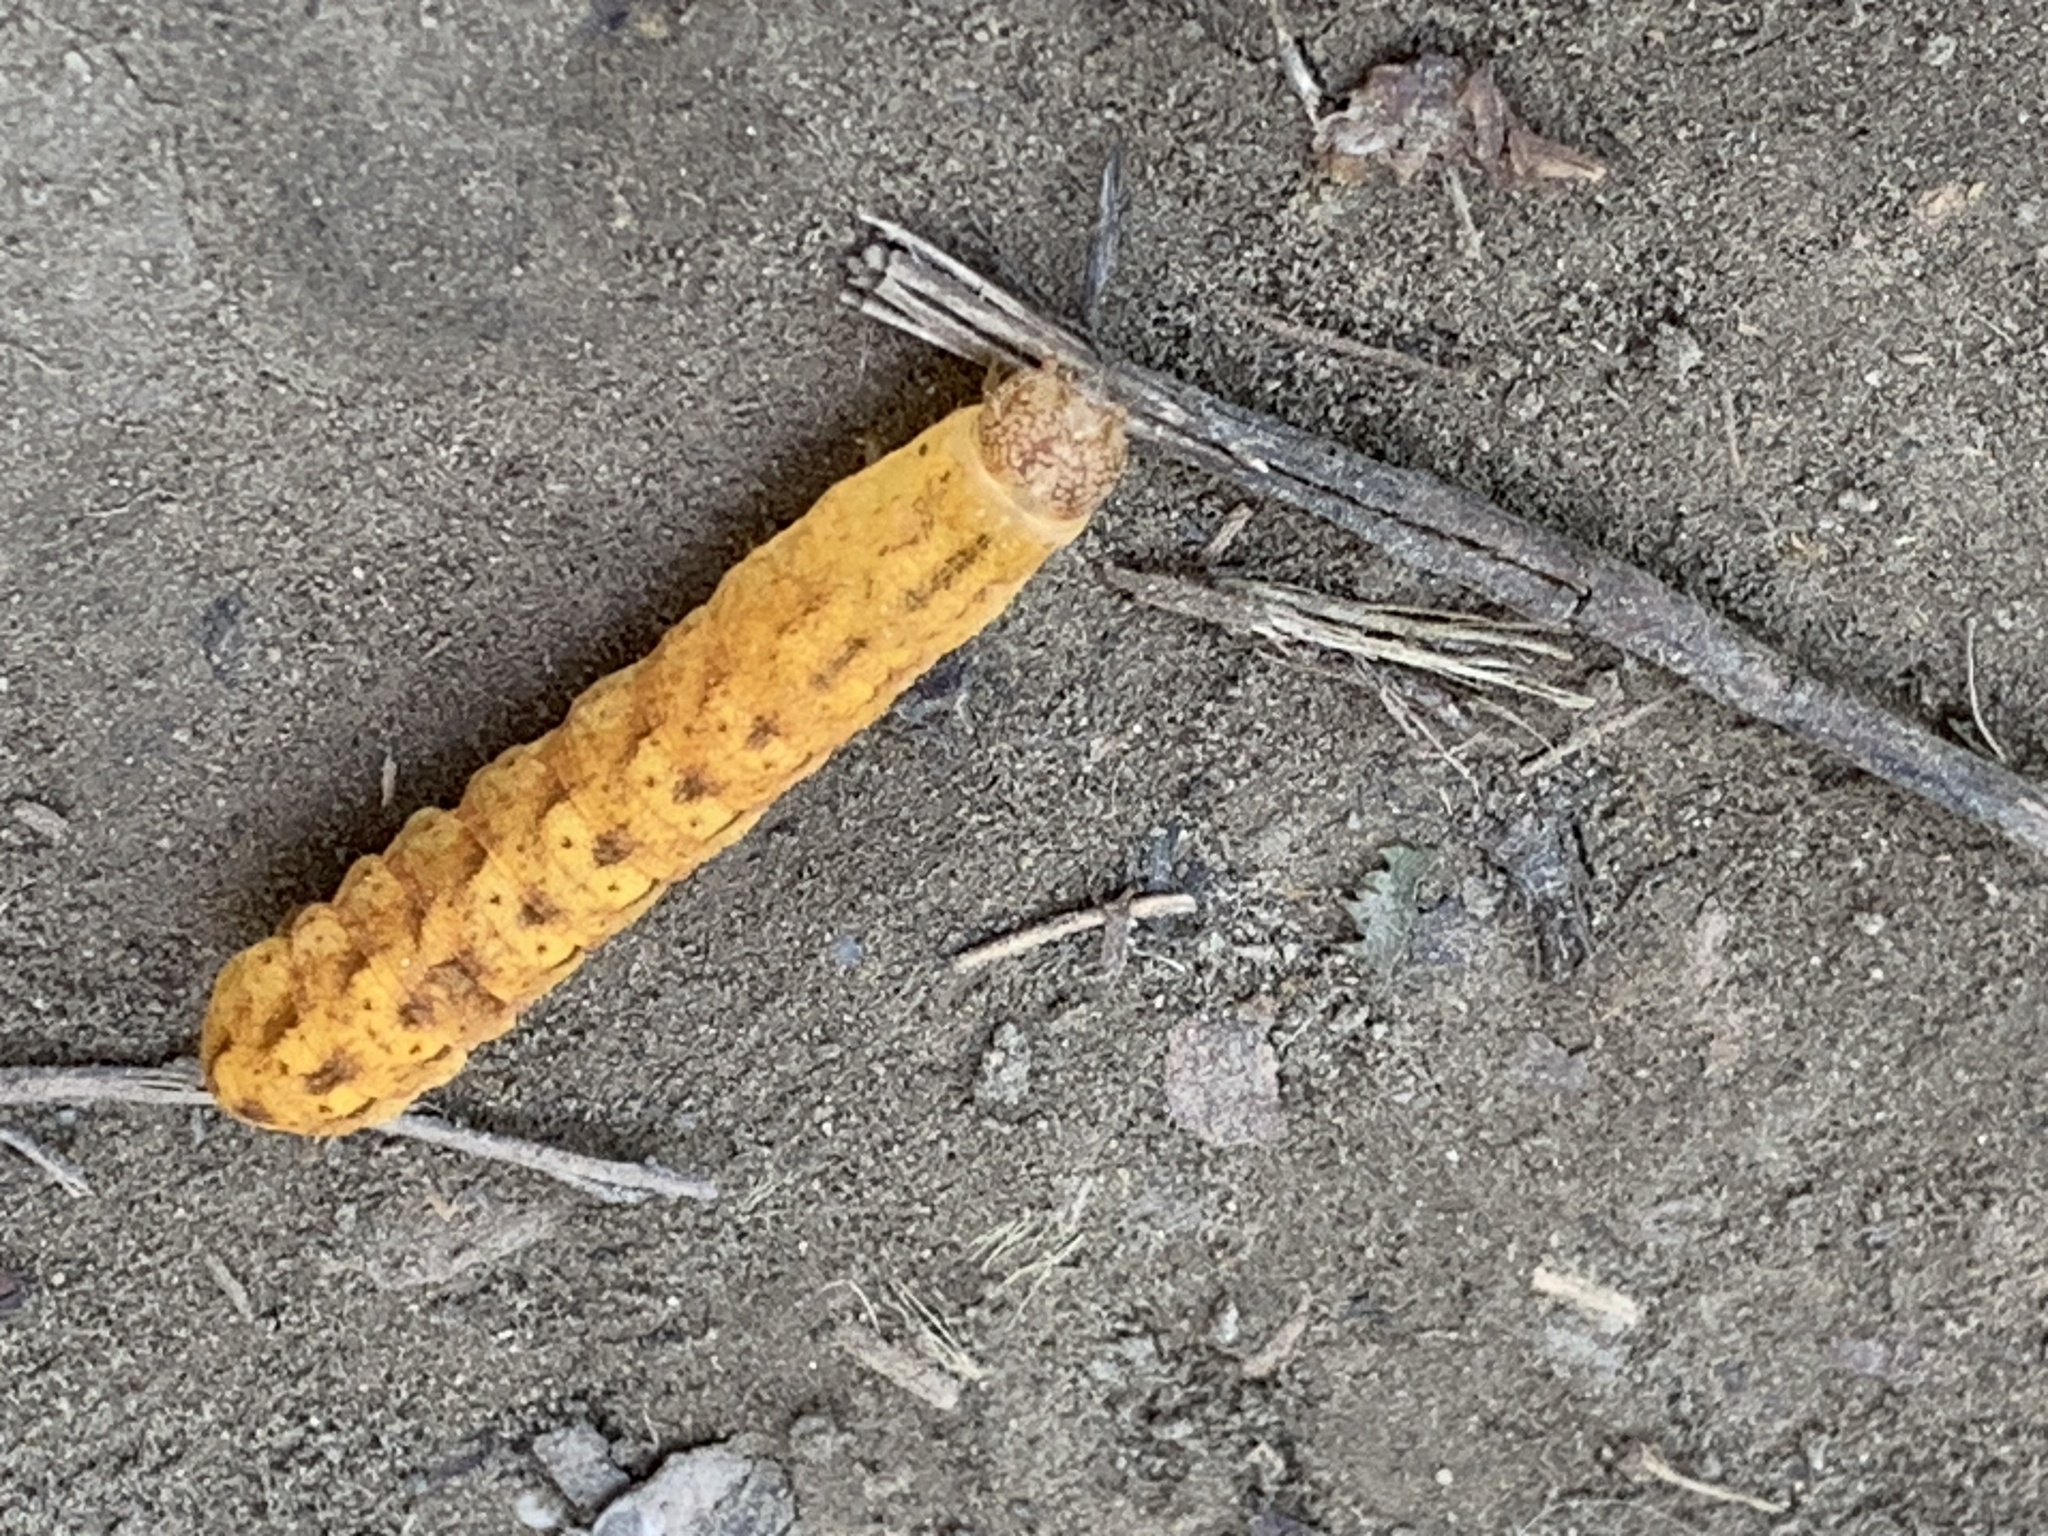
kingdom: Animalia
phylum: Arthropoda
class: Insecta
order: Lepidoptera
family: Noctuidae
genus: Spiramater
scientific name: Spiramater lutra
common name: Otter spiramater moth
